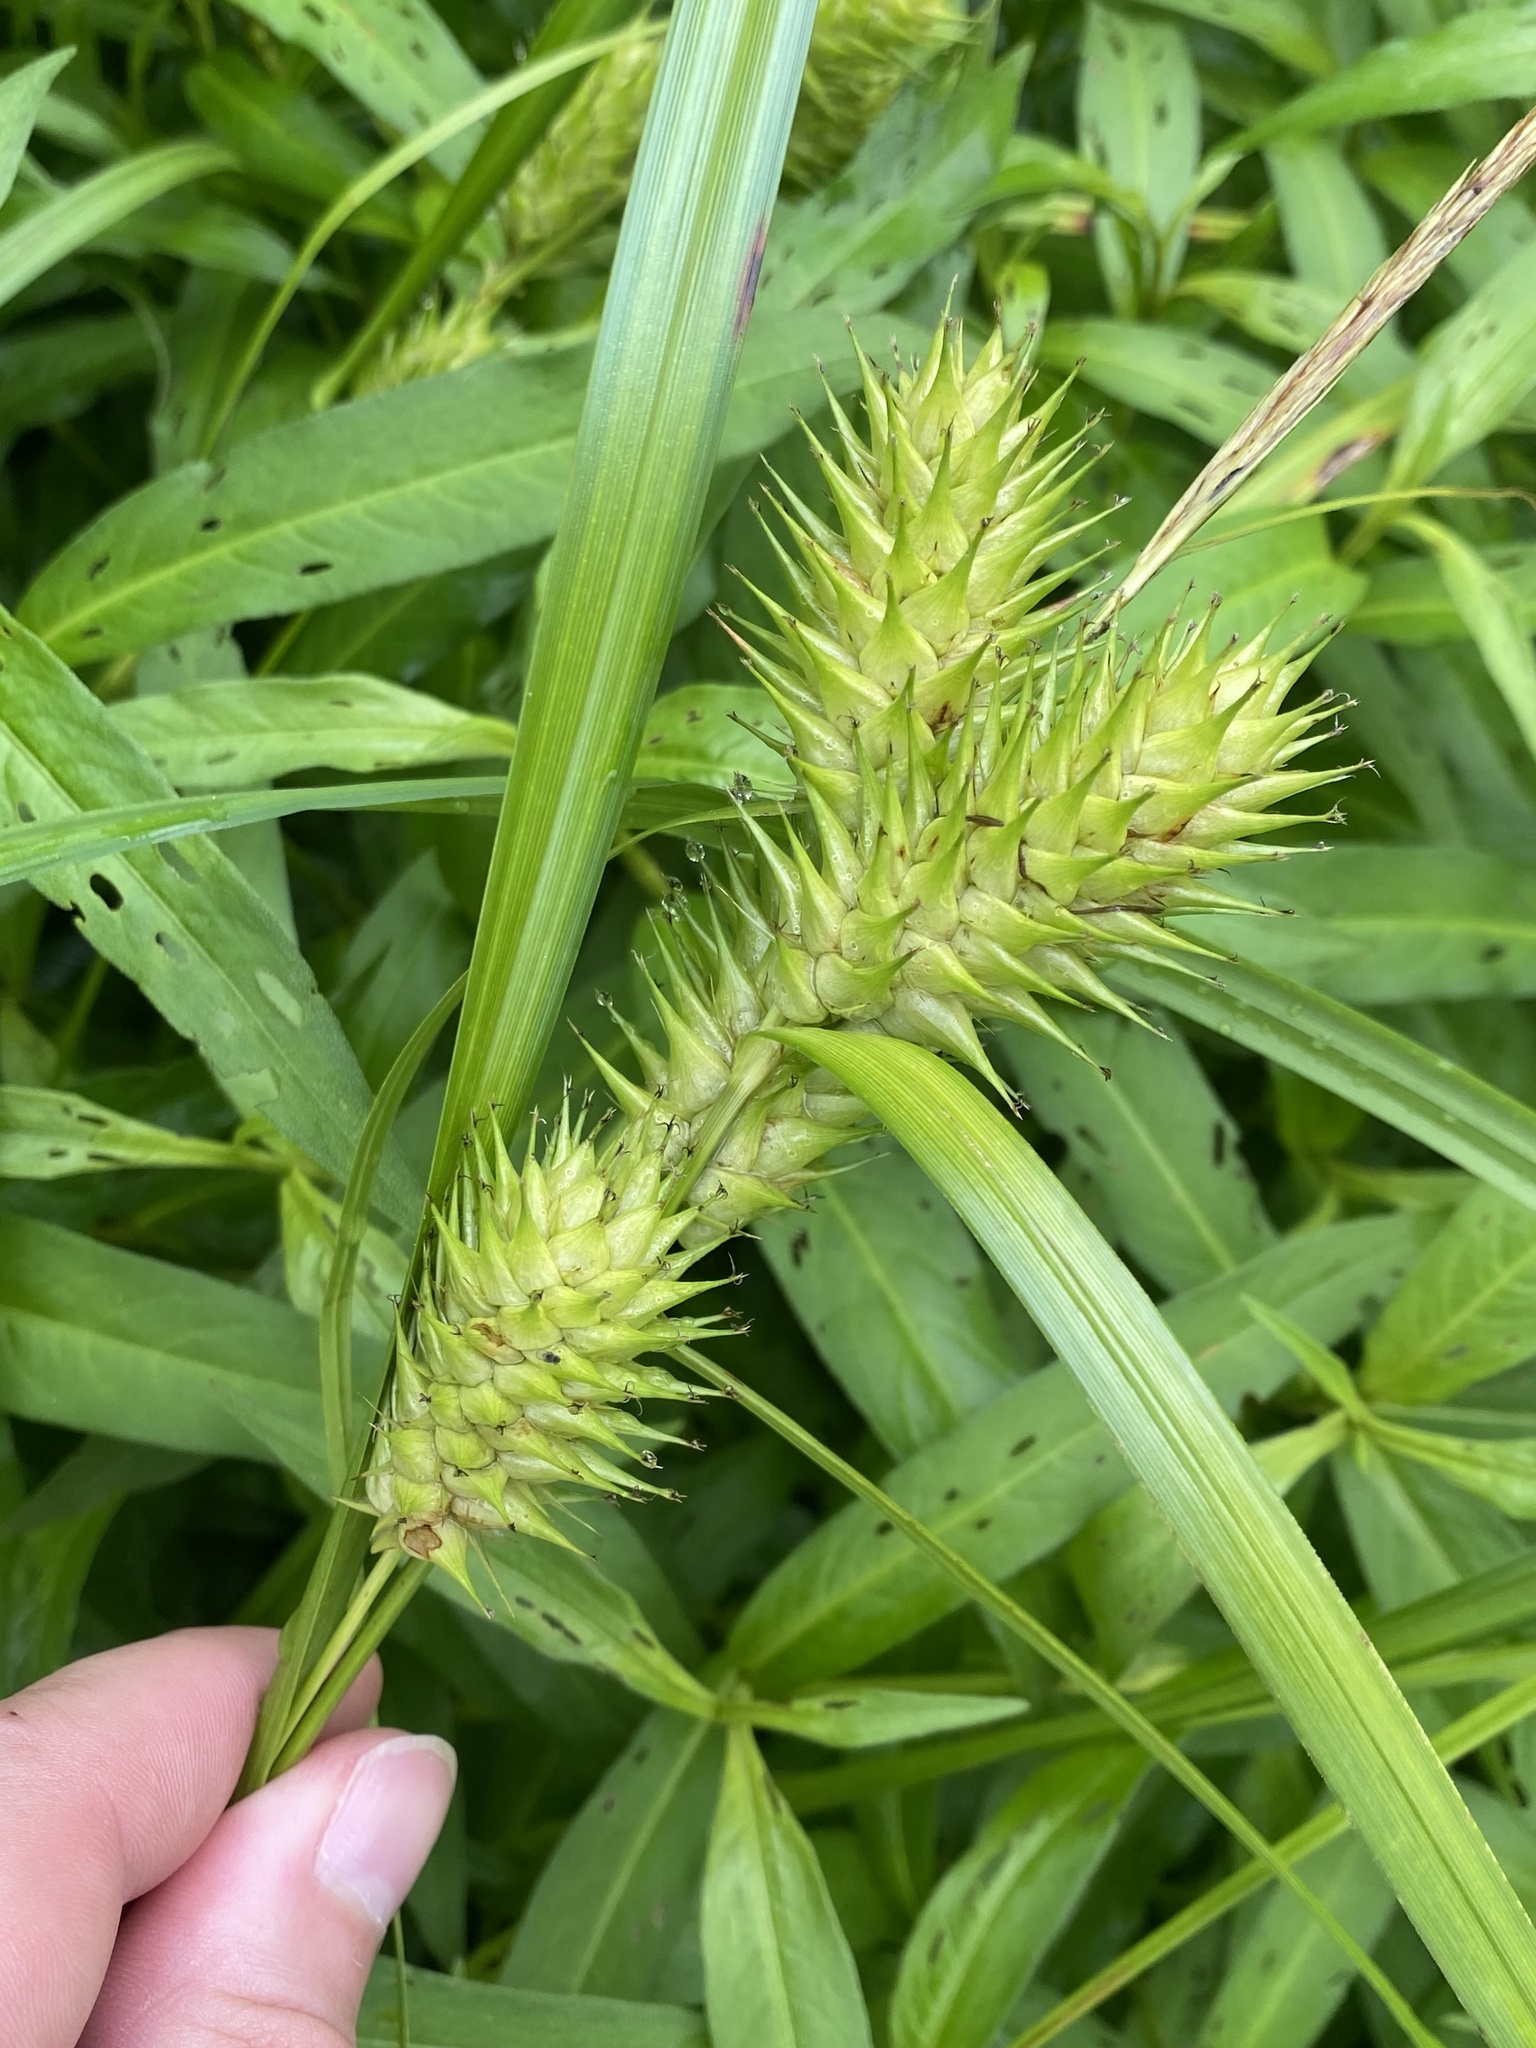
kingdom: Plantae
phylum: Tracheophyta
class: Liliopsida
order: Poales
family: Cyperaceae
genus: Carex
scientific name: Carex lupulina
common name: Hop sedge
